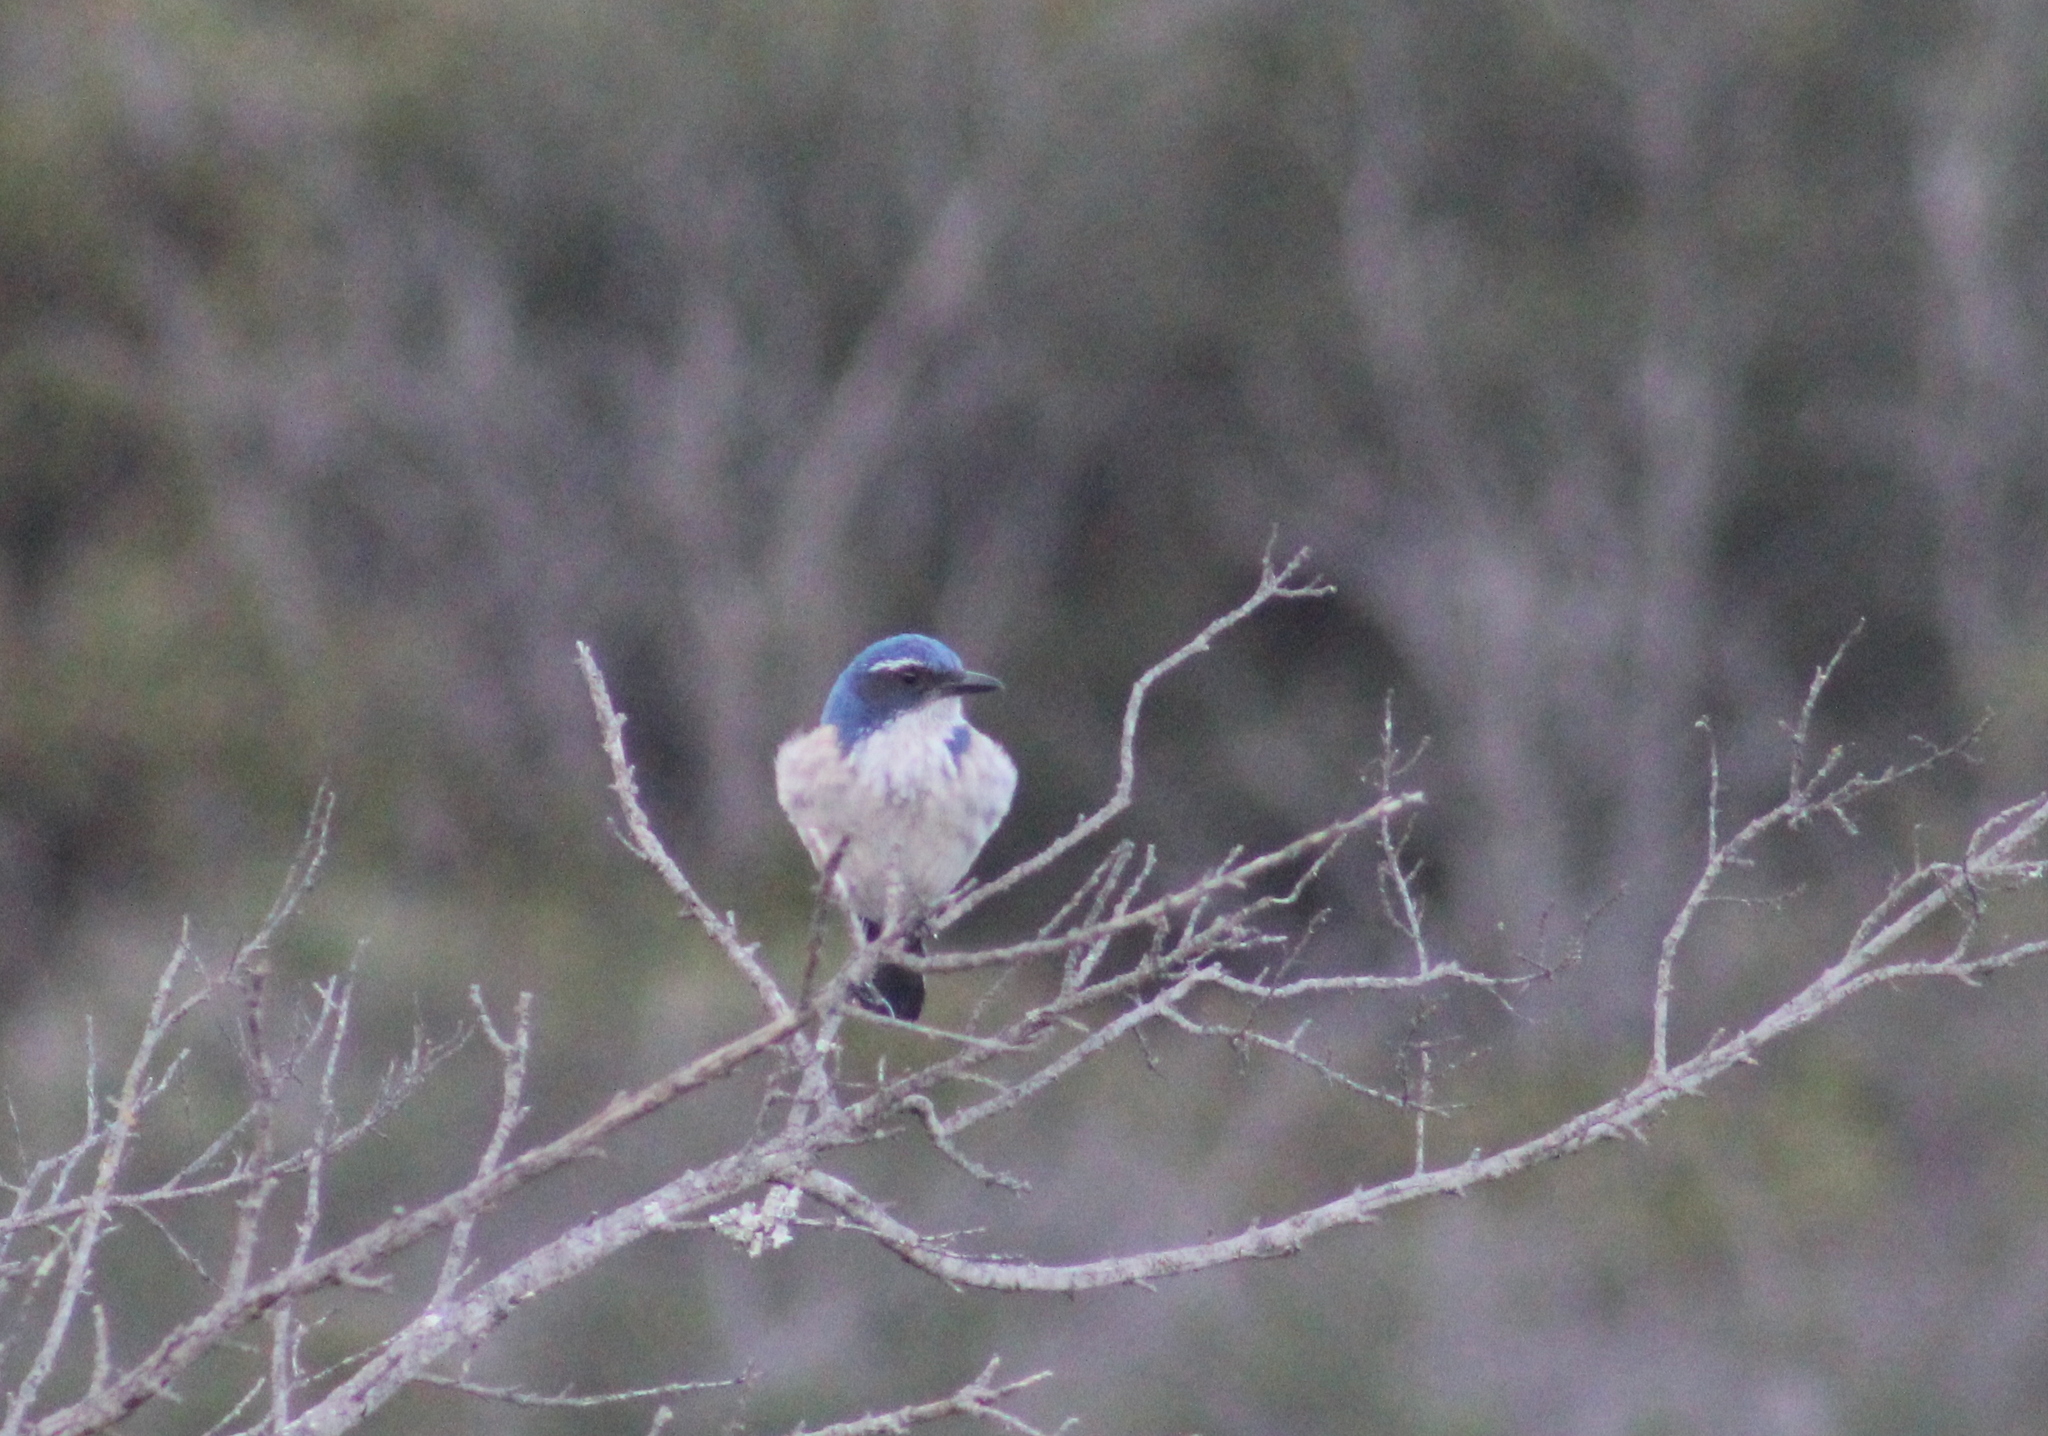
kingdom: Animalia
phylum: Chordata
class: Aves
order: Passeriformes
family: Corvidae
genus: Aphelocoma
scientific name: Aphelocoma californica
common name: California scrub-jay
